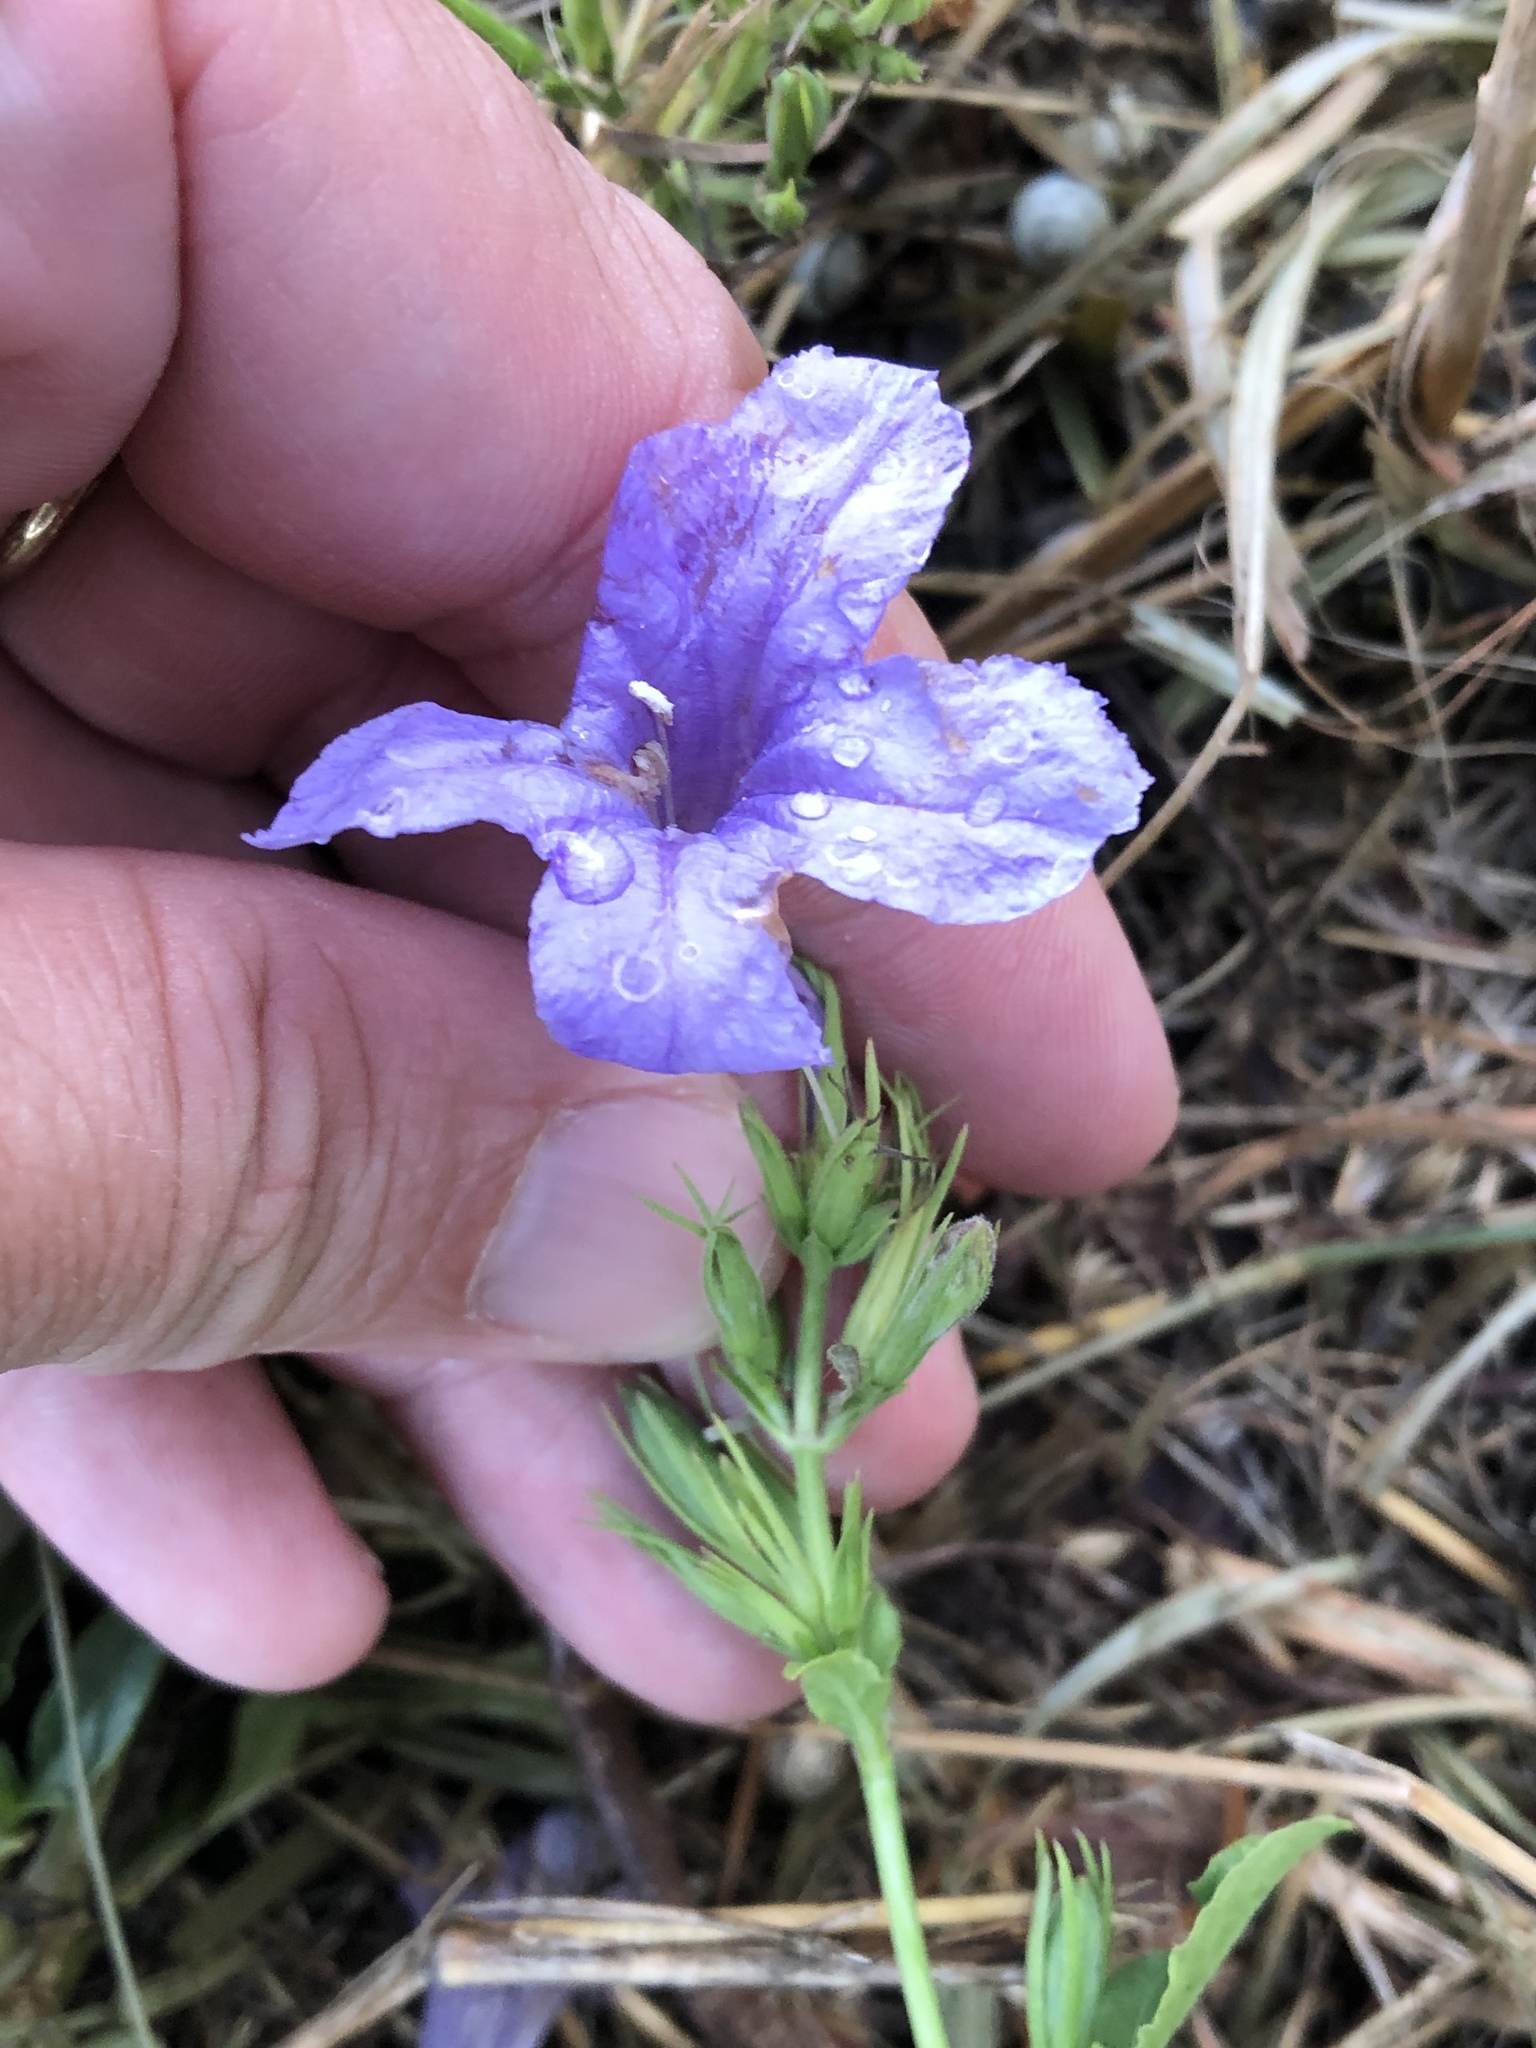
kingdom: Plantae
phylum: Tracheophyta
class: Magnoliopsida
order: Lamiales
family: Acanthaceae
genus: Ruellia
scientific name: Ruellia ciliatiflora
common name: Hairyflower wild petunia
